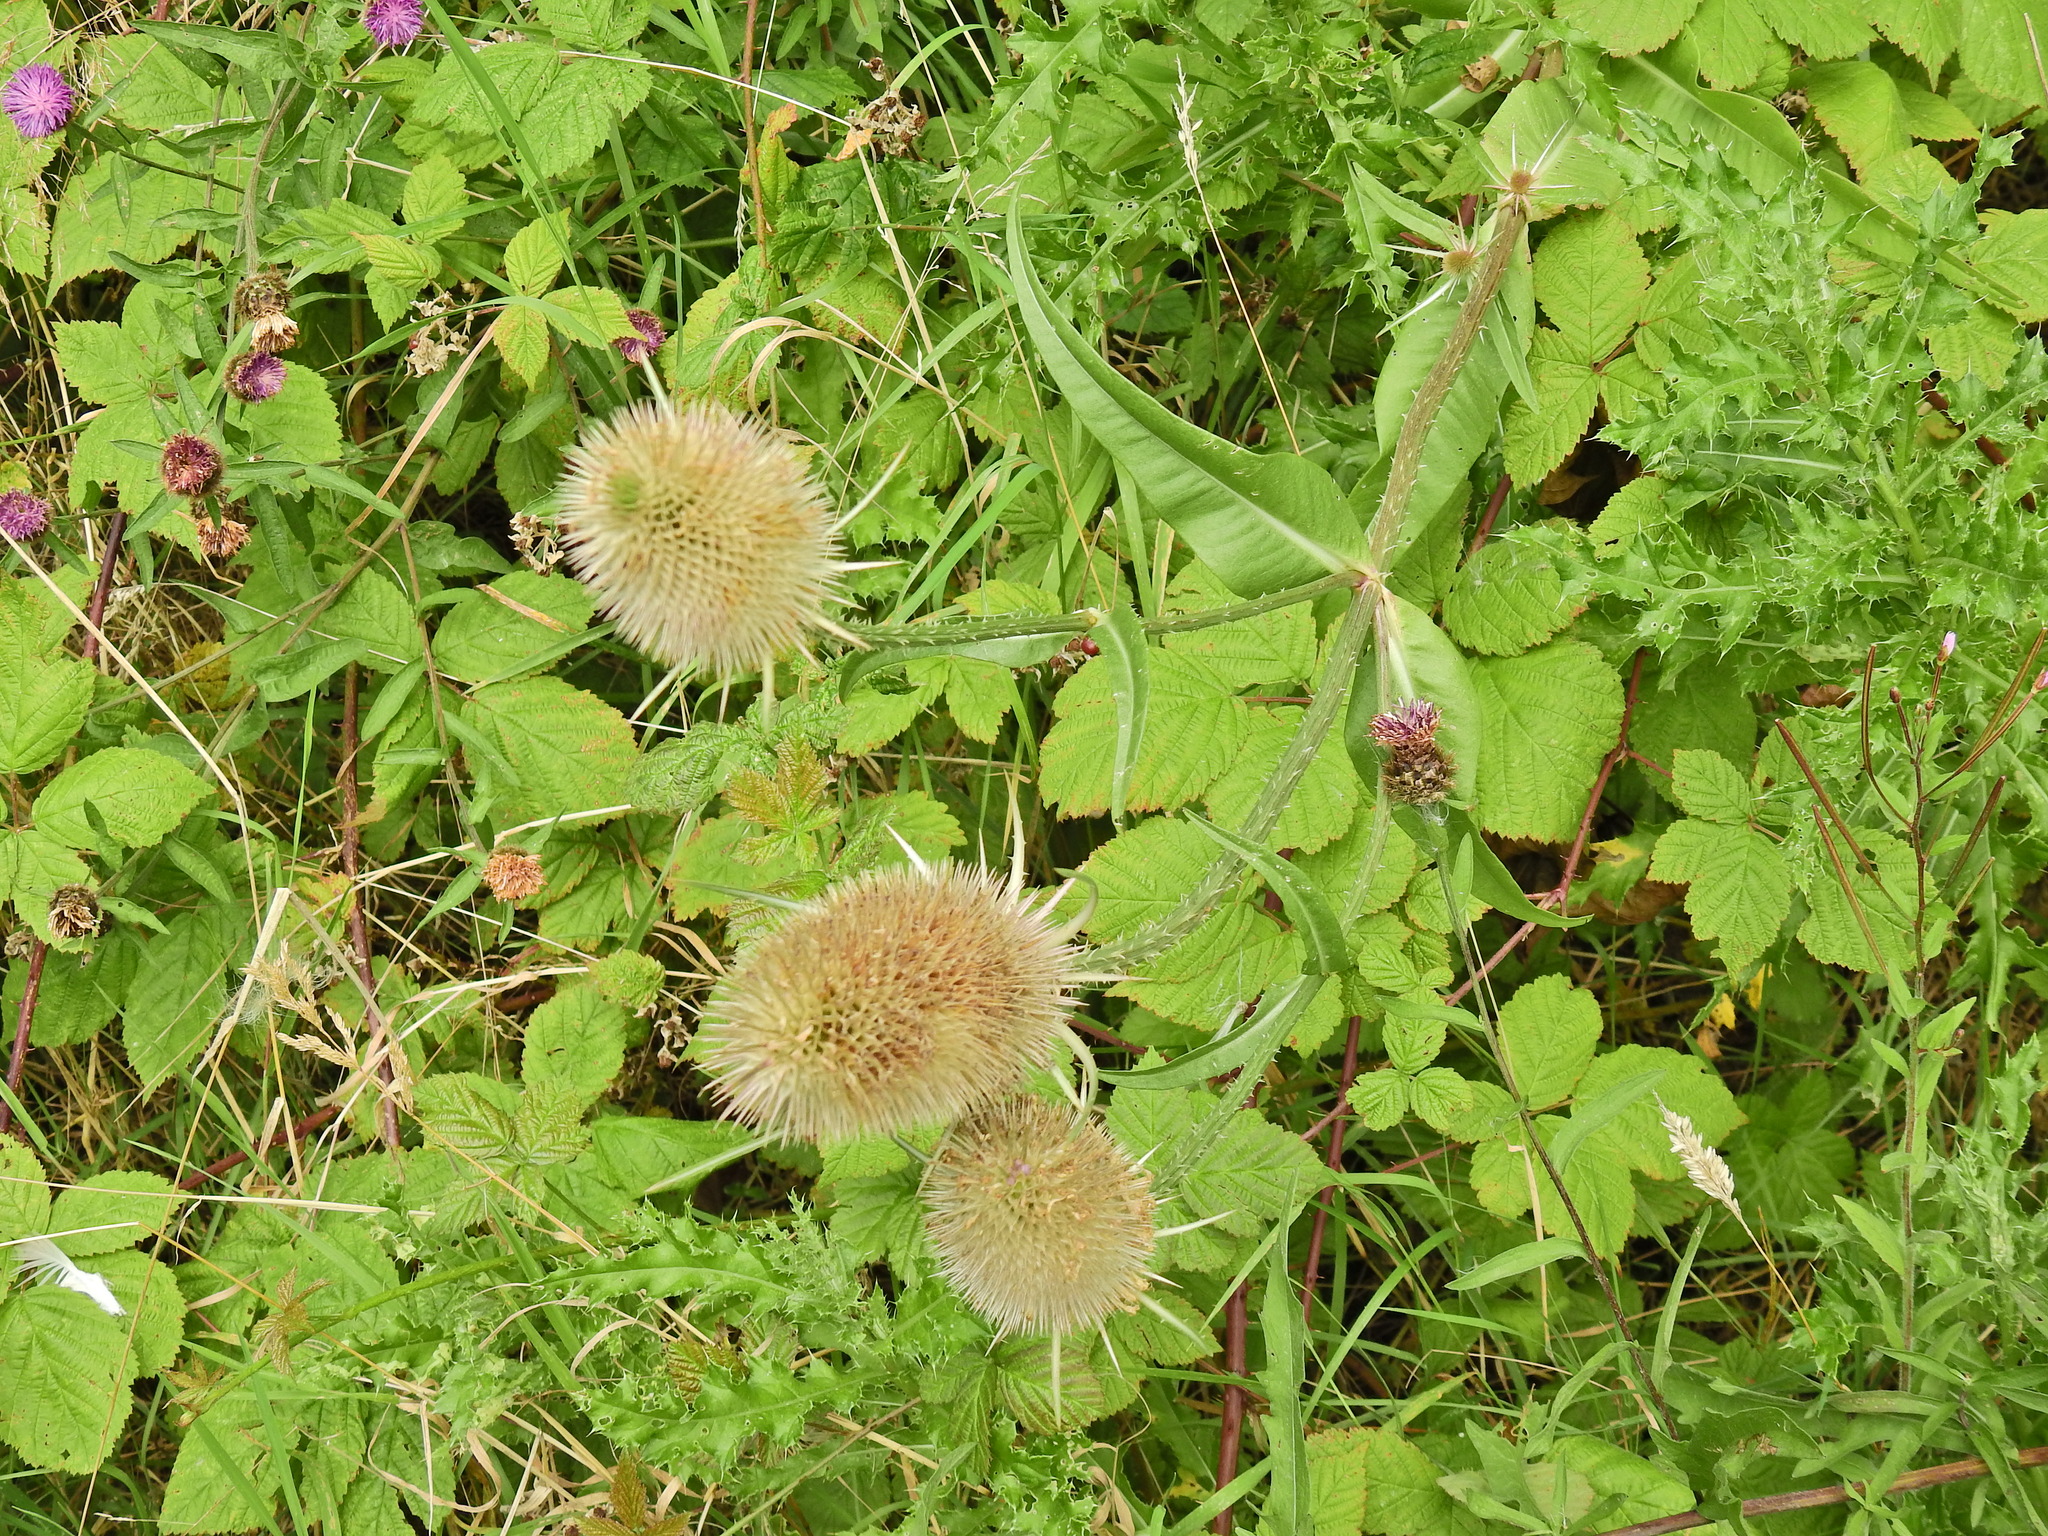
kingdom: Plantae
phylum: Tracheophyta
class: Magnoliopsida
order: Dipsacales
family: Caprifoliaceae
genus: Dipsacus
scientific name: Dipsacus fullonum
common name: Teasel
